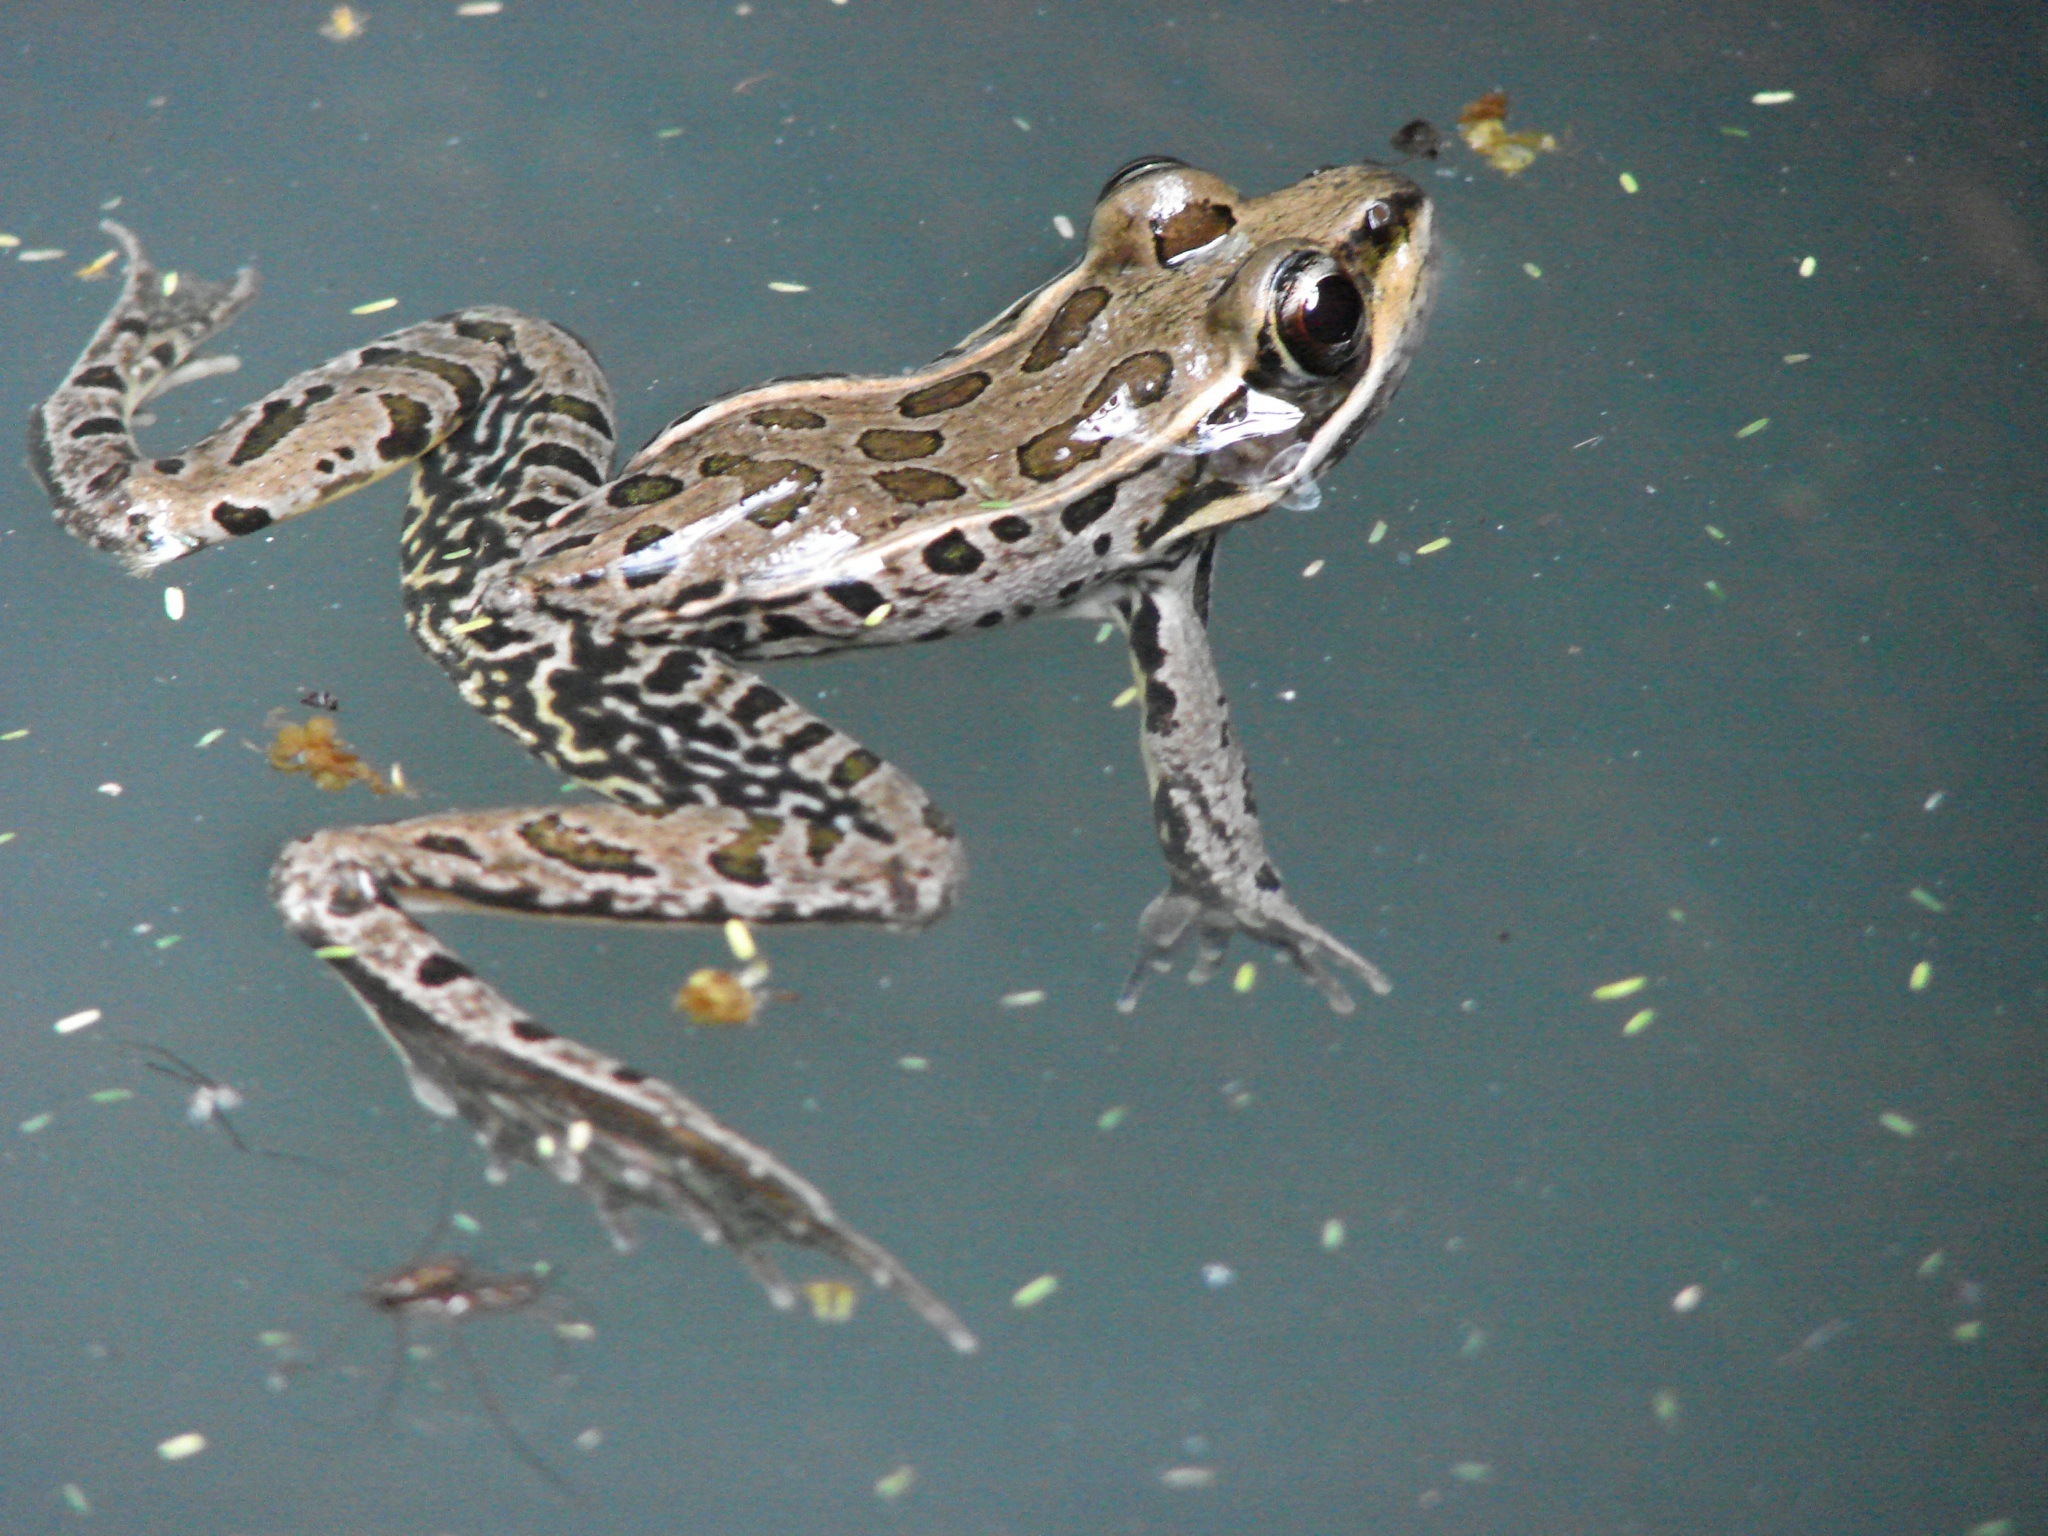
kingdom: Animalia
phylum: Chordata
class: Amphibia
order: Anura
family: Ranidae
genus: Lithobates
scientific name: Lithobates magnaocularis
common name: Northwest mexico leopard frog
